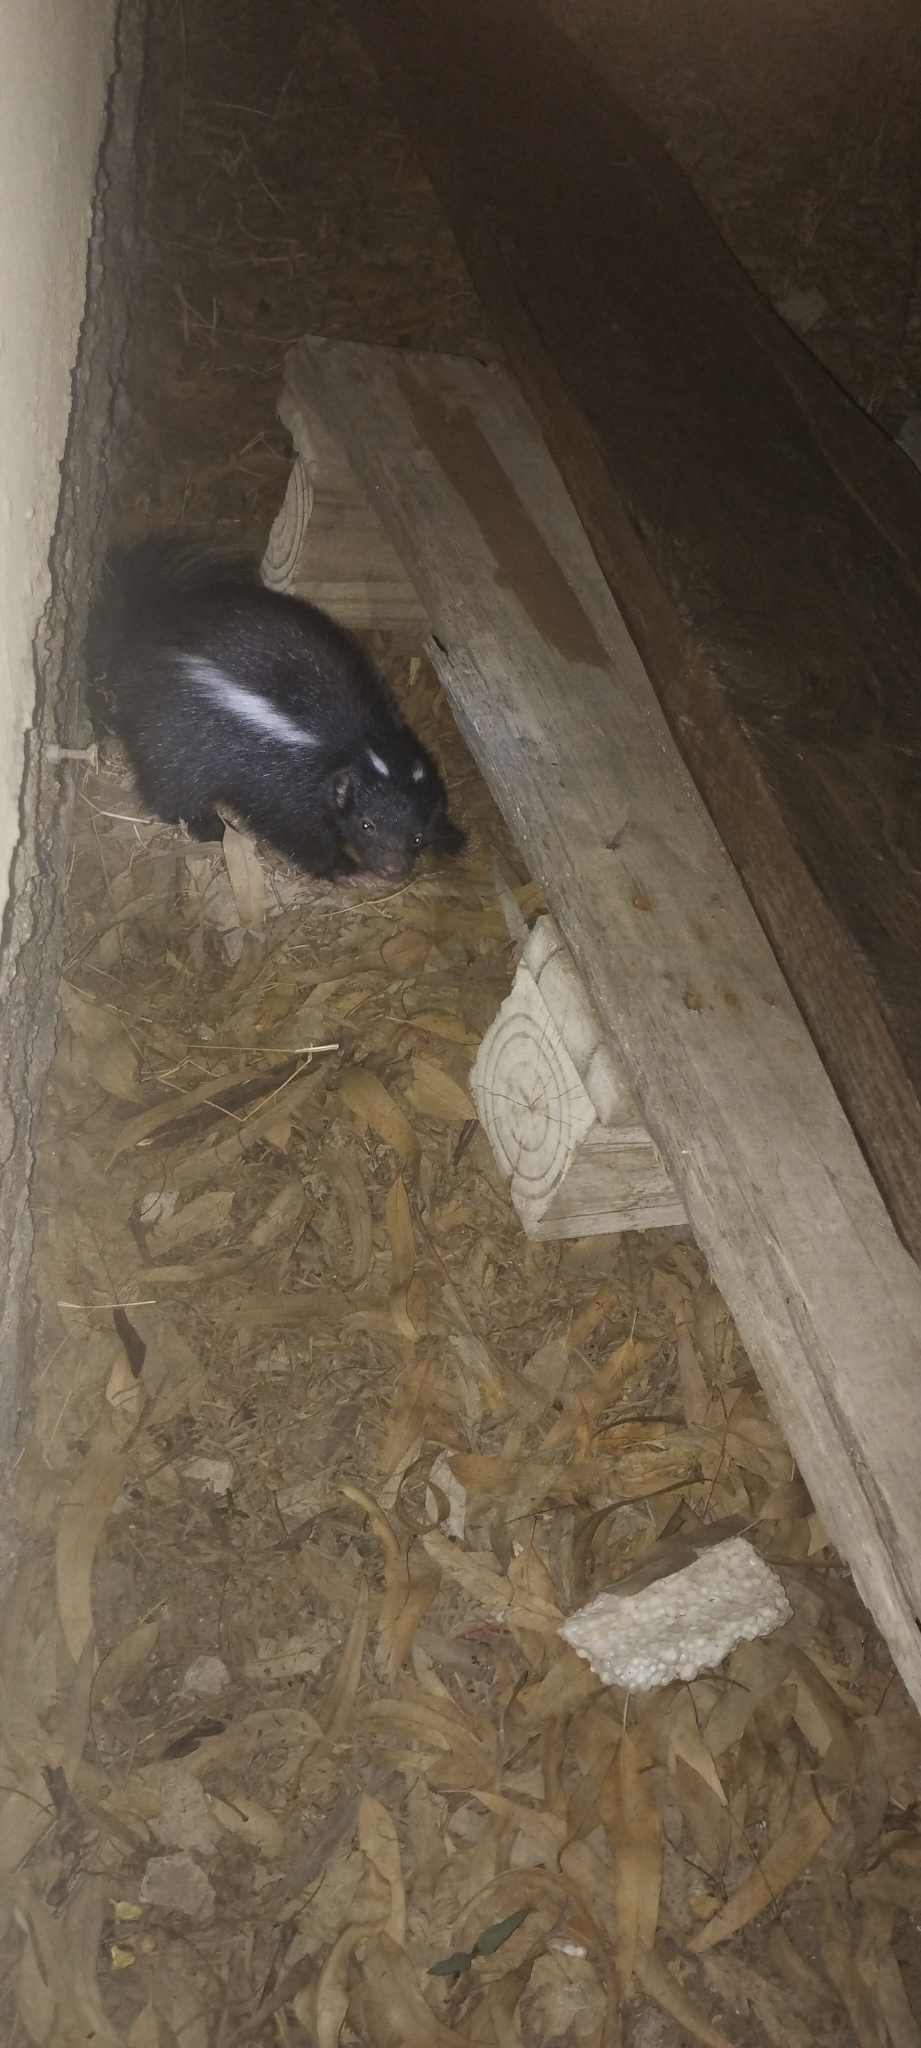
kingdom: Animalia
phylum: Chordata
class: Mammalia
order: Carnivora
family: Mephitidae
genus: Conepatus
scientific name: Conepatus chinga
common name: Molina's hog-nosed skunk
